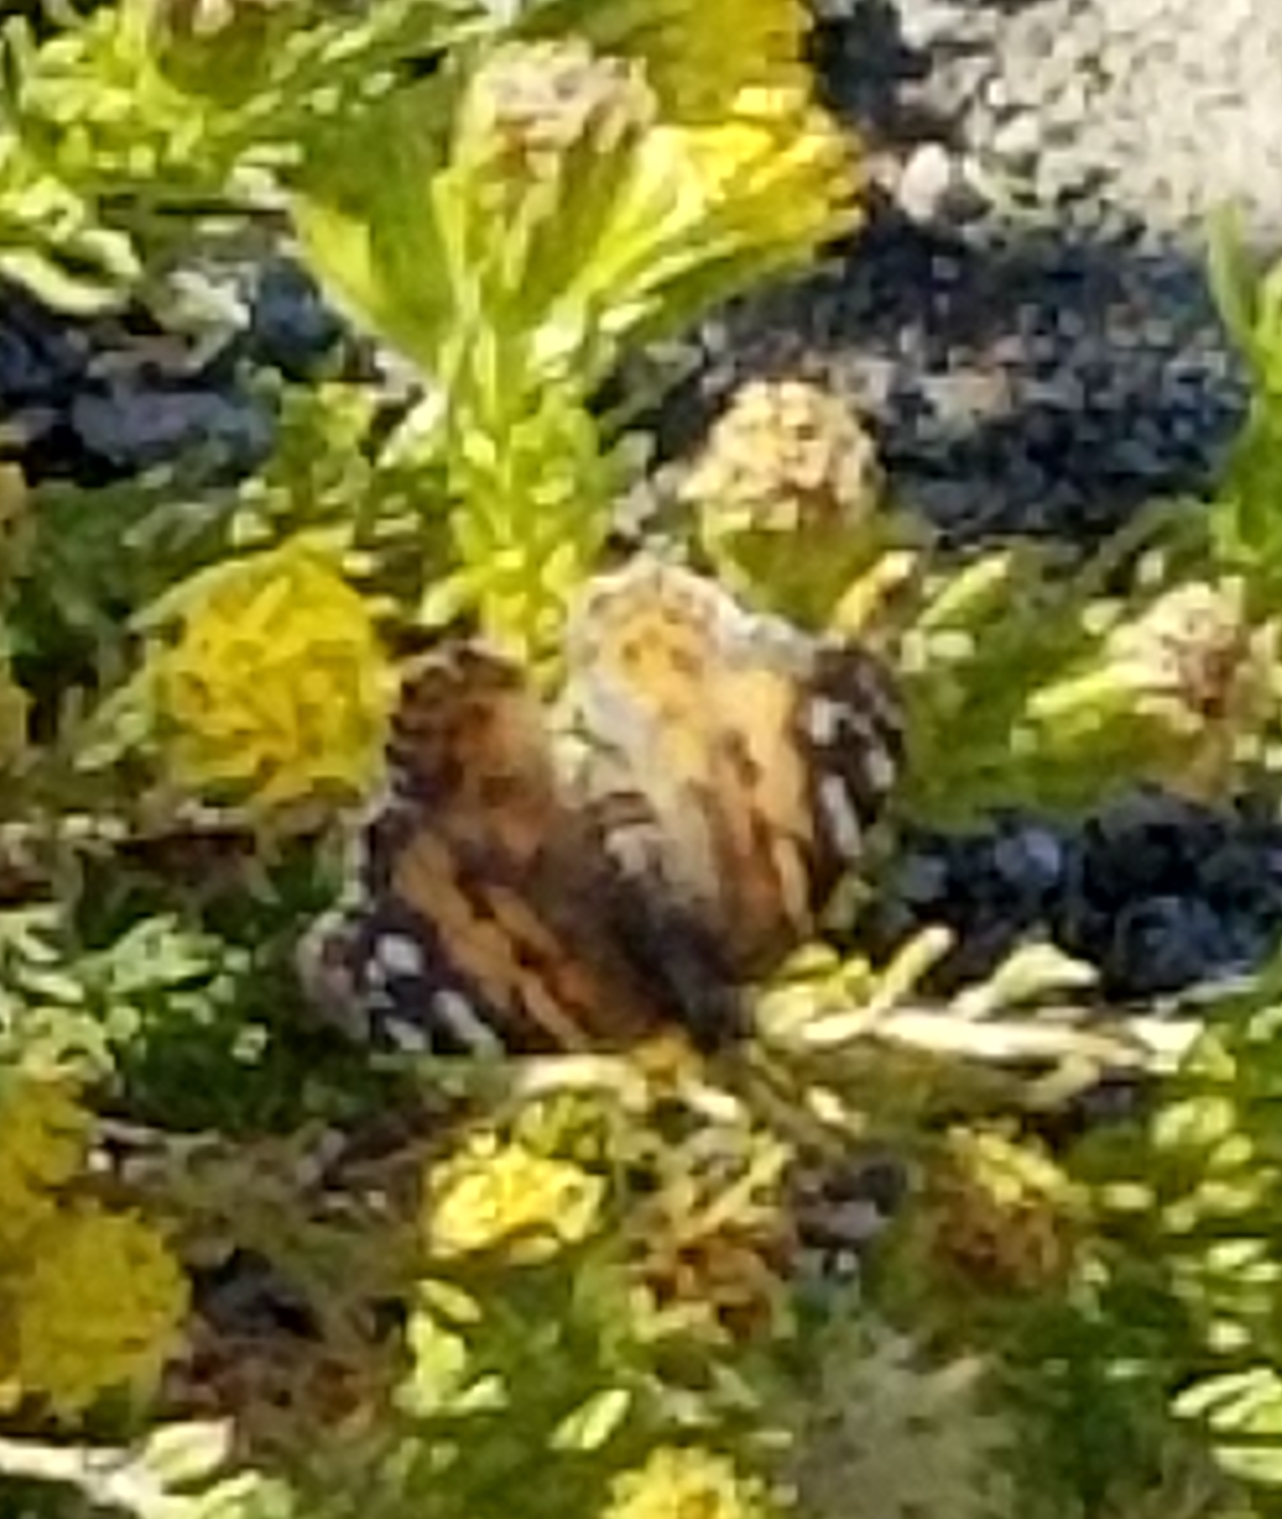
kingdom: Animalia
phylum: Arthropoda
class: Insecta
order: Lepidoptera
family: Nymphalidae
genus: Vanessa
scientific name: Vanessa cardui
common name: Painted lady
